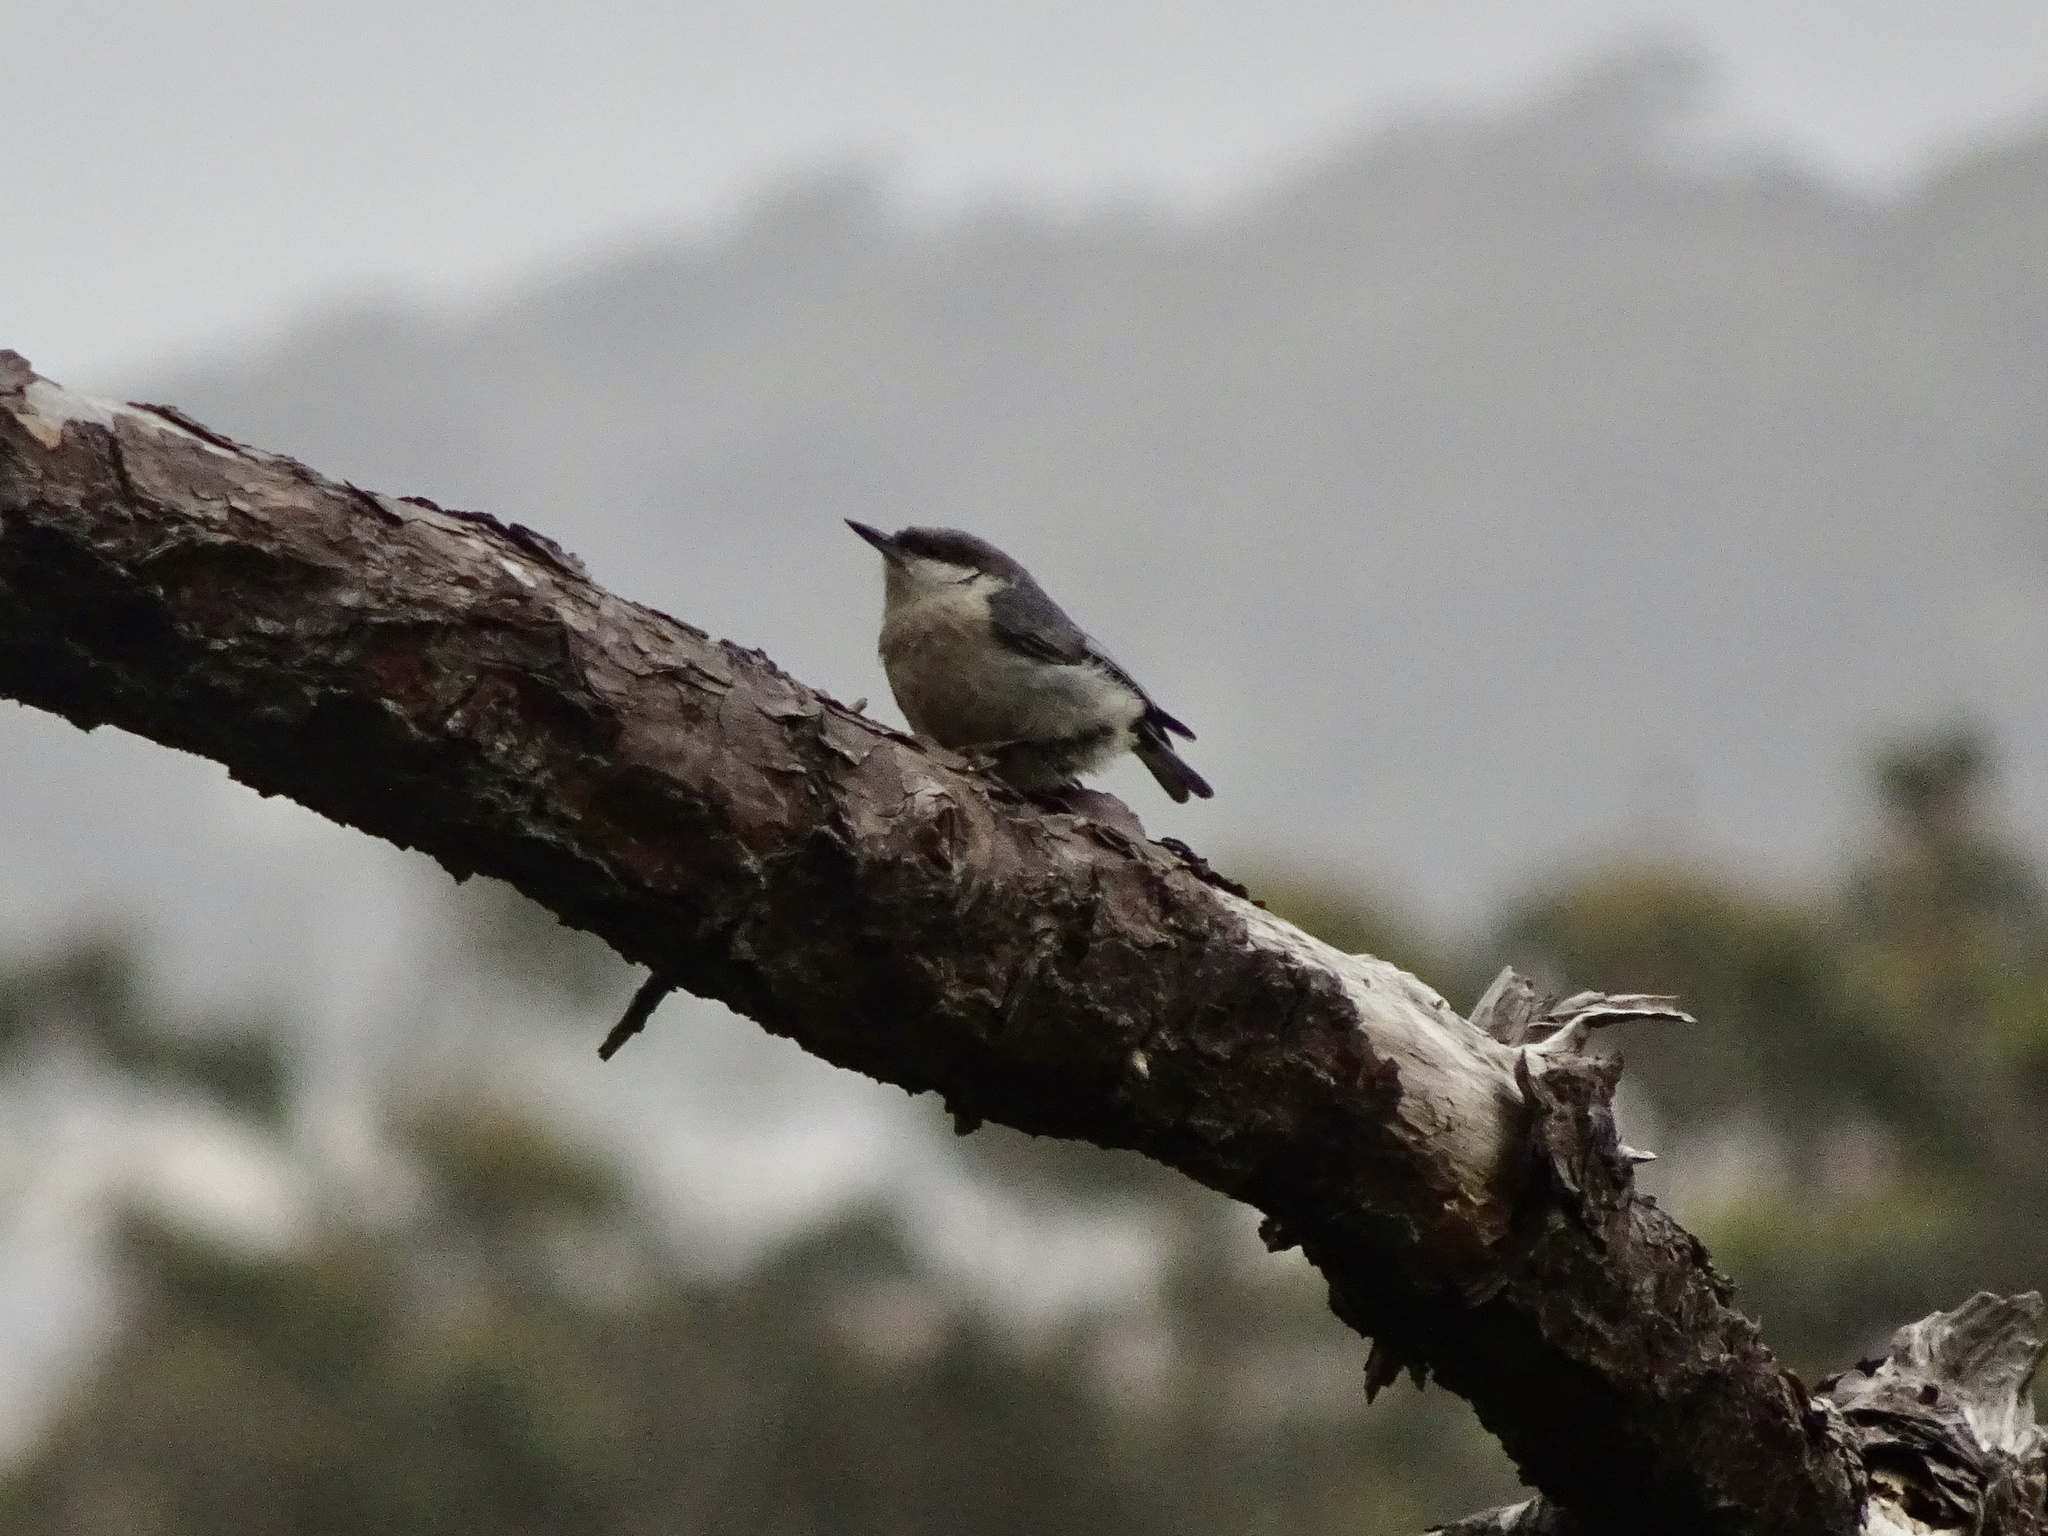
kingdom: Animalia
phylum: Chordata
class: Aves
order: Passeriformes
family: Sittidae
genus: Sitta
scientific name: Sitta pygmaea
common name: Pygmy nuthatch
